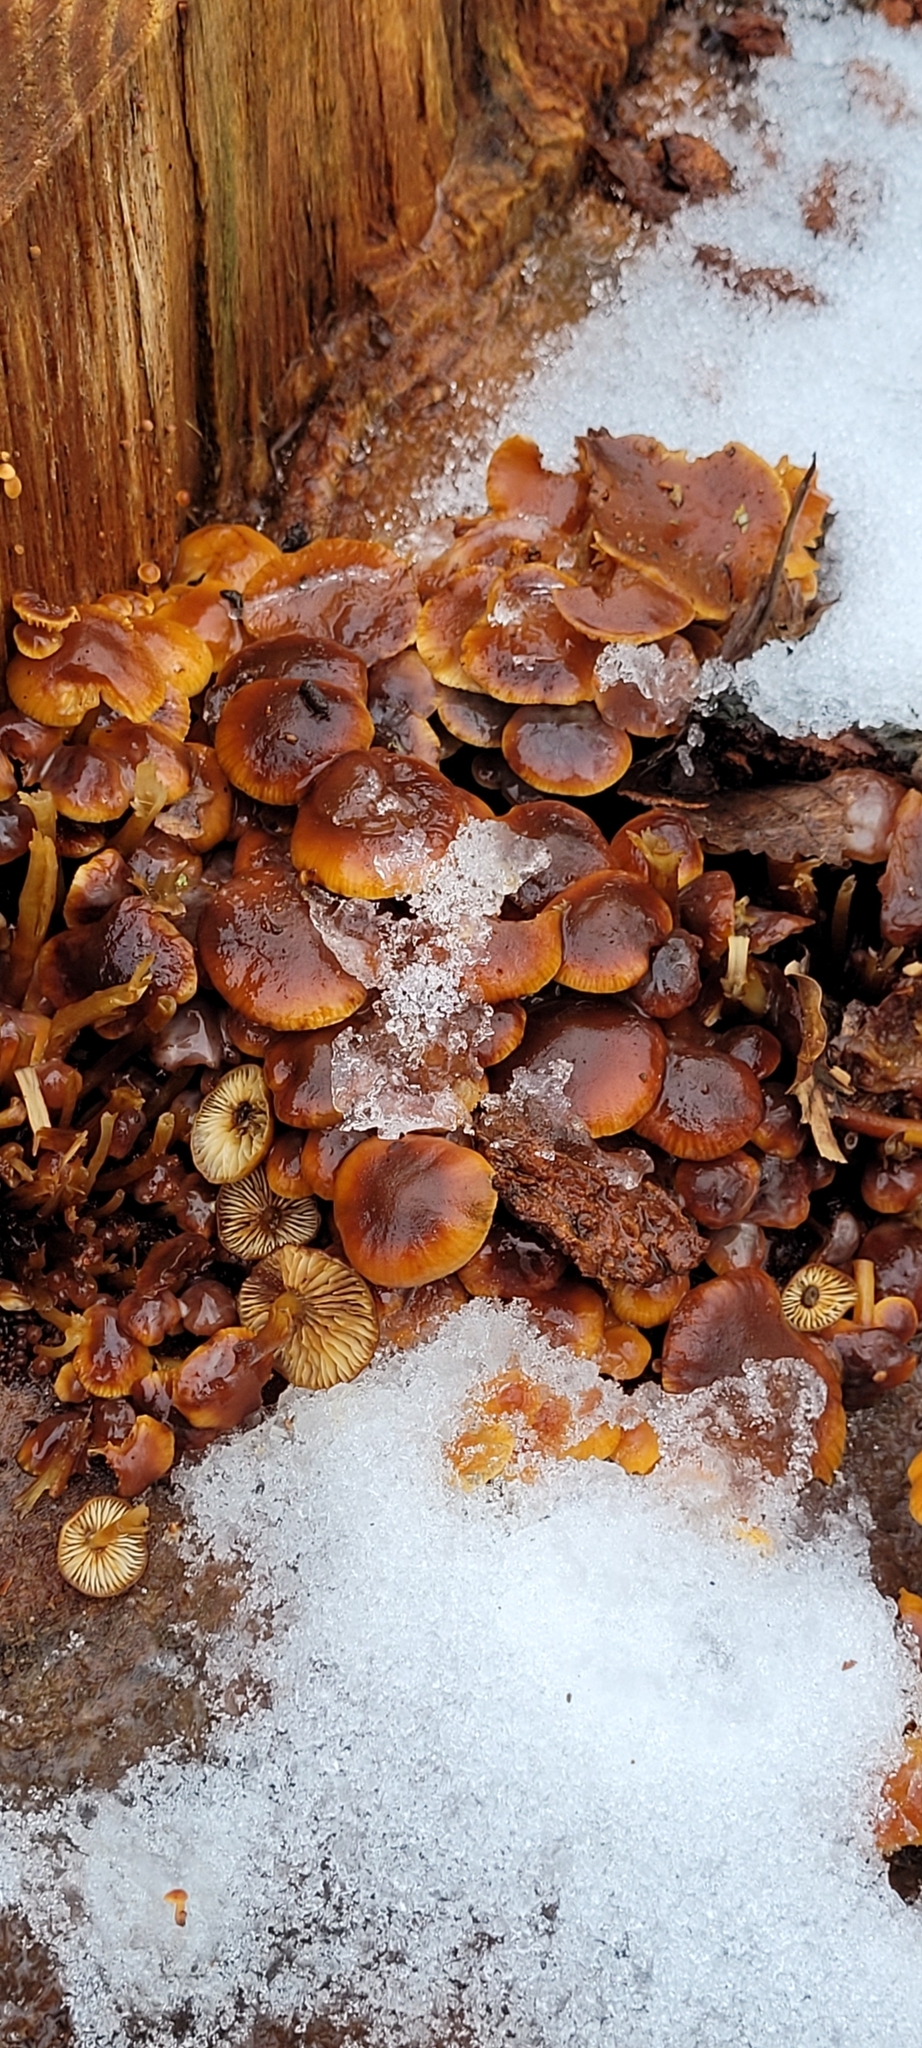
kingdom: Fungi
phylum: Basidiomycota
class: Agaricomycetes
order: Agaricales
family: Physalacriaceae
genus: Flammulina
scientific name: Flammulina
